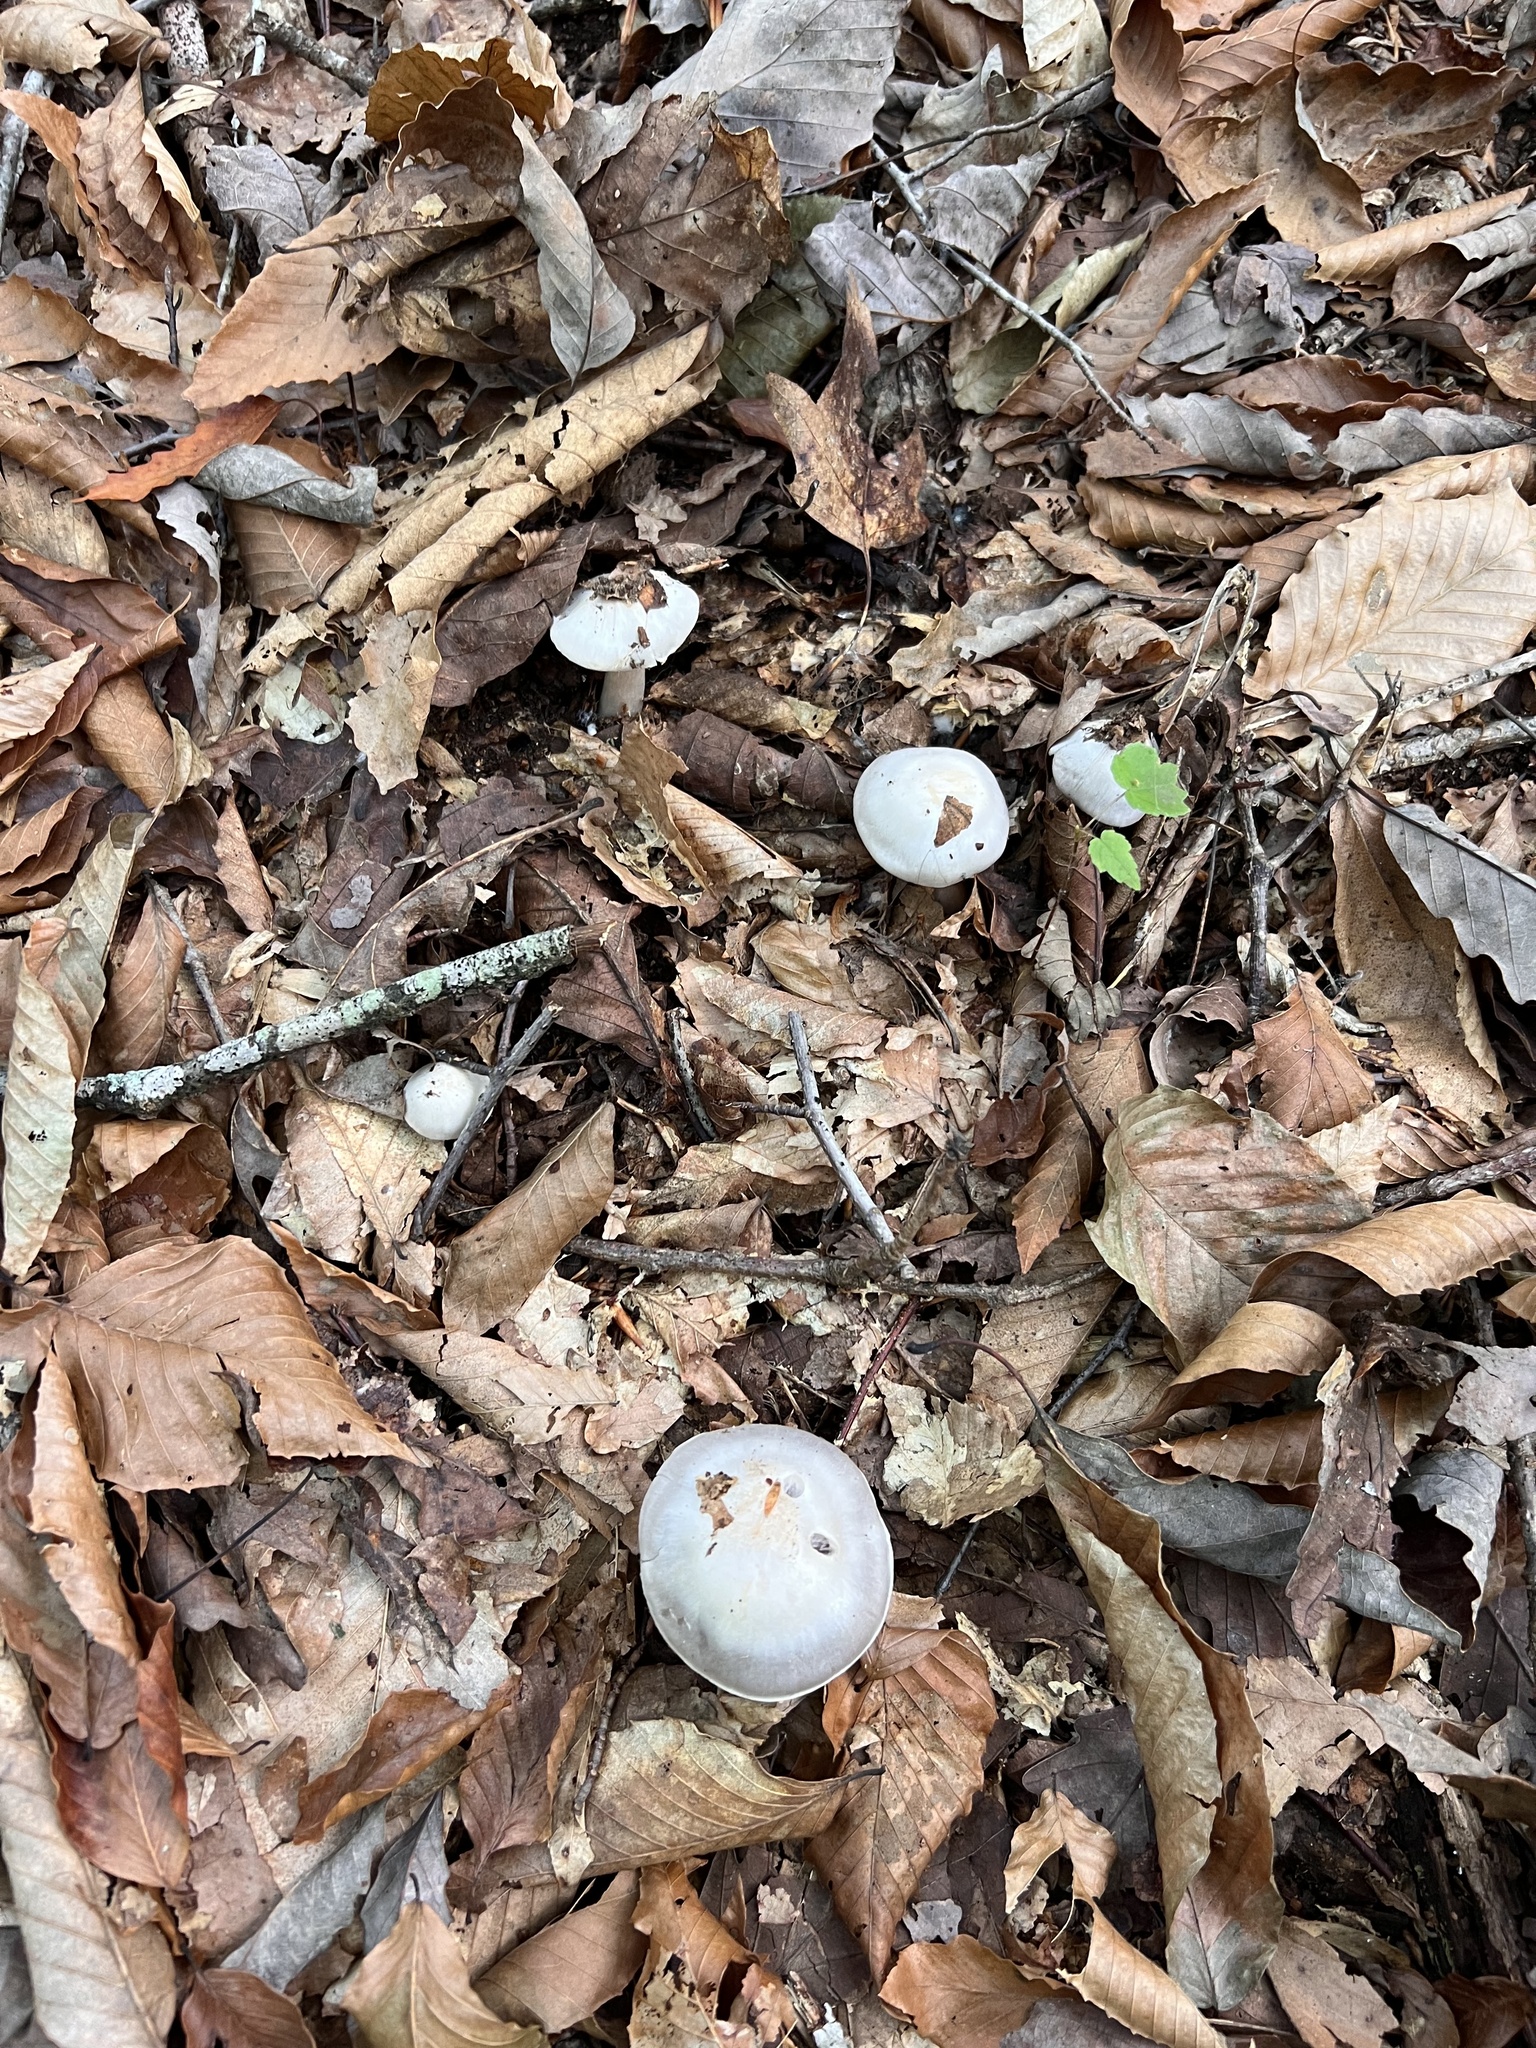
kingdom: Fungi
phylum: Basidiomycota
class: Agaricomycetes
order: Agaricales
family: Cortinariaceae
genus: Cortinarius
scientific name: Cortinarius alboviolaceus
